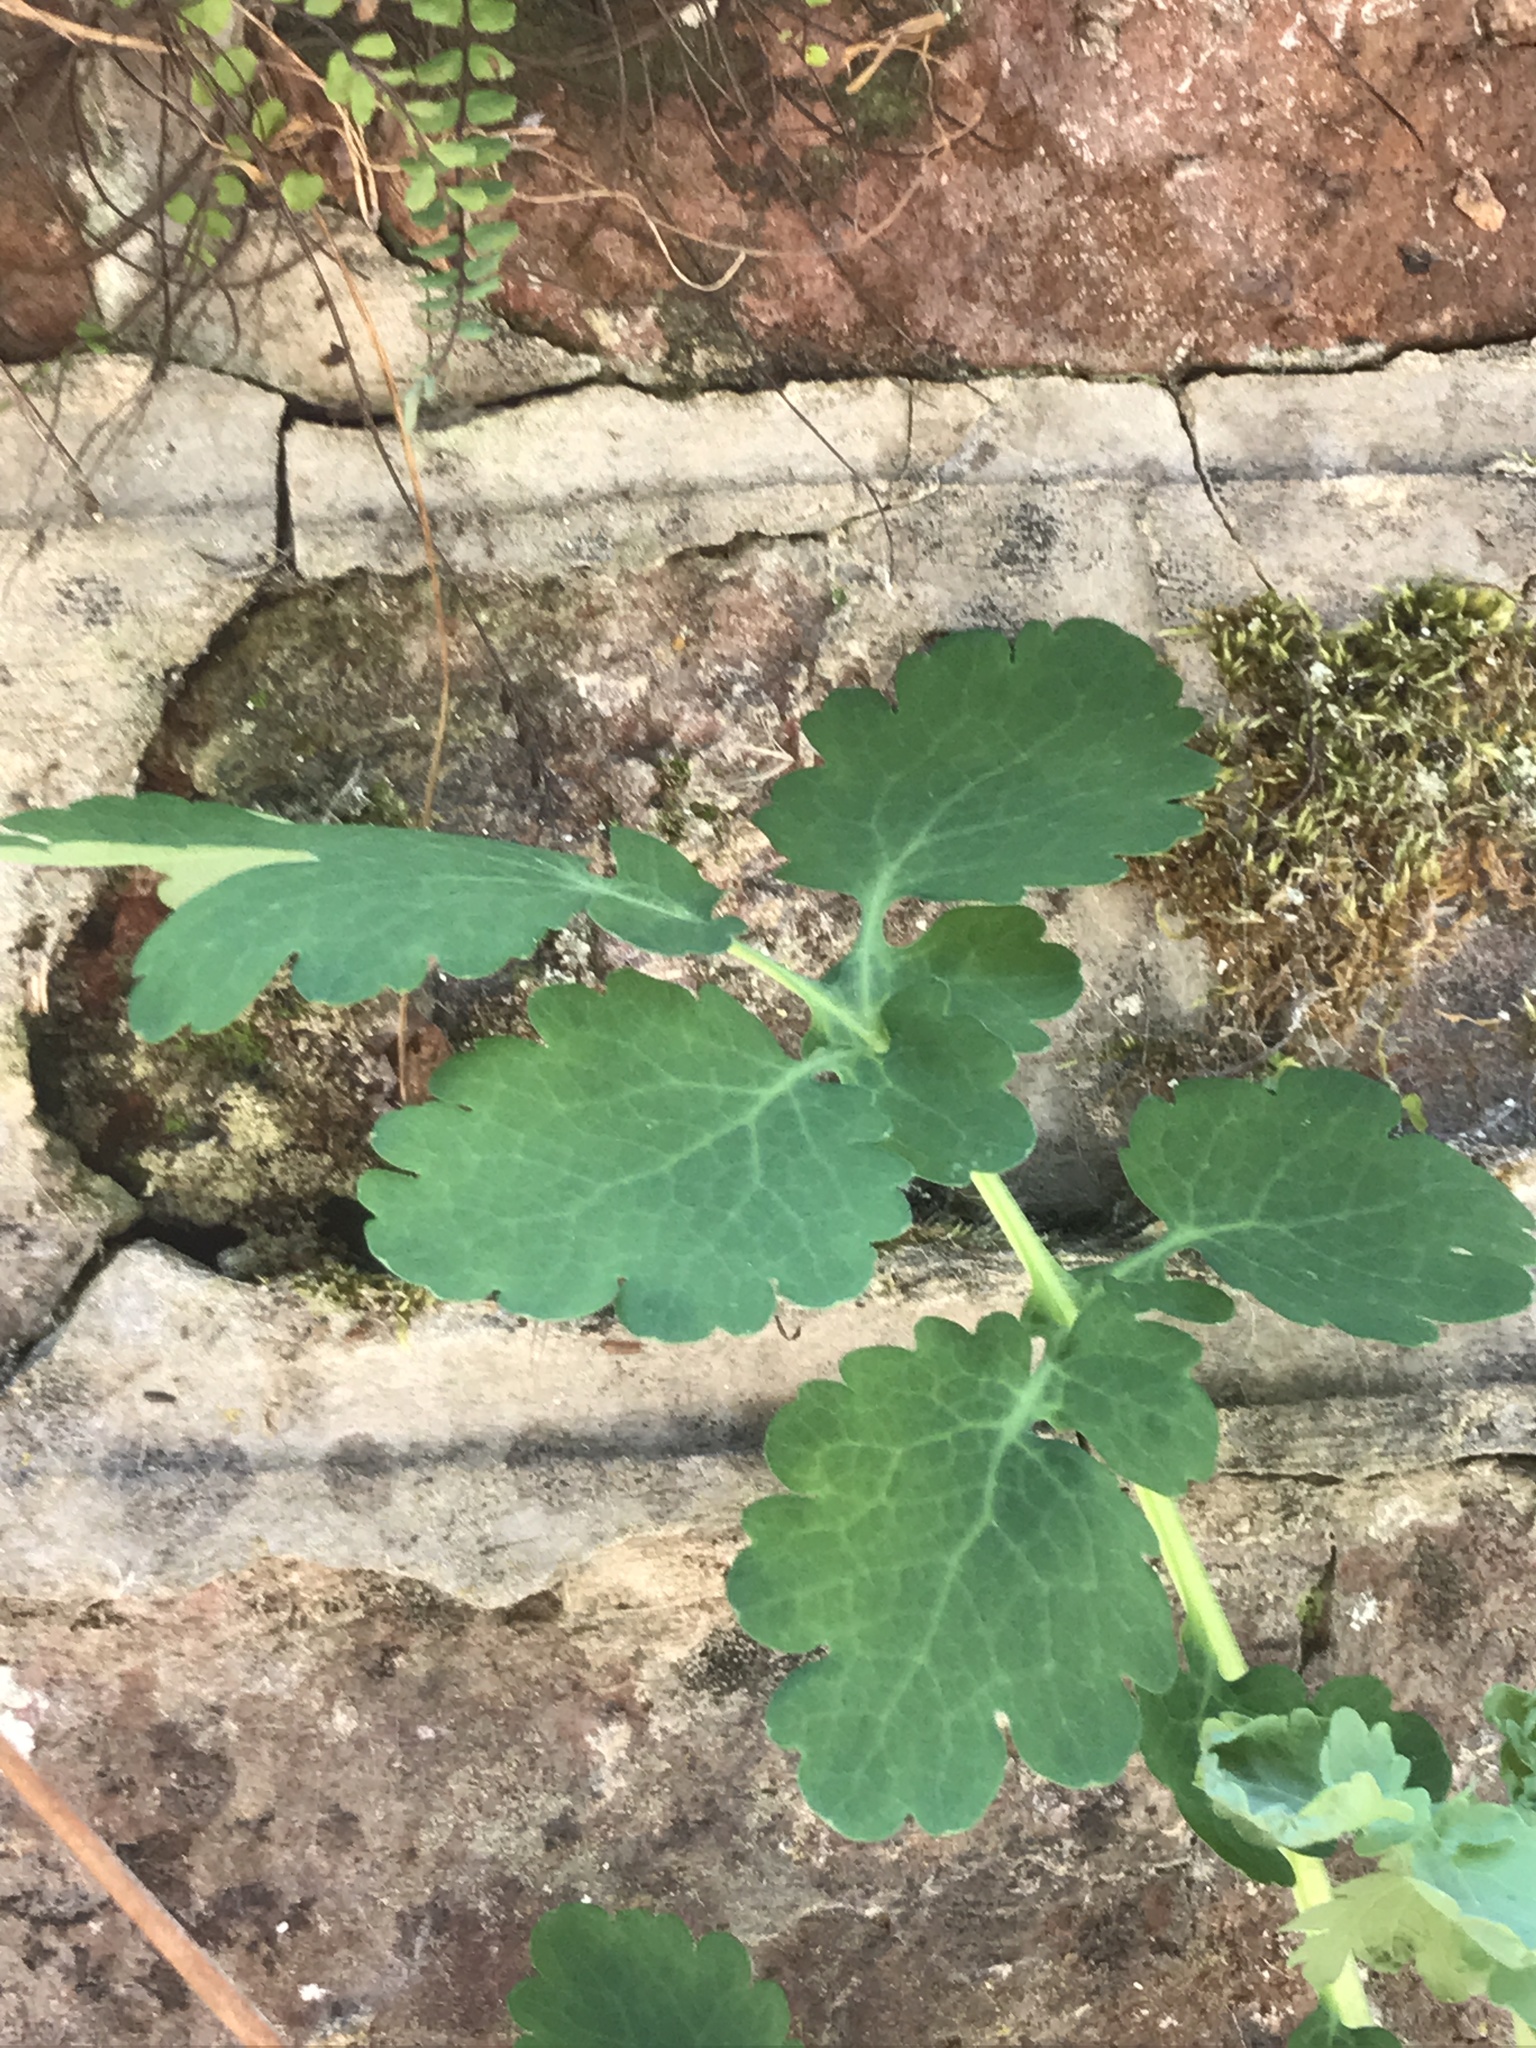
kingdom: Plantae
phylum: Tracheophyta
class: Magnoliopsida
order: Ranunculales
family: Papaveraceae
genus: Chelidonium
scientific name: Chelidonium majus
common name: Greater celandine
